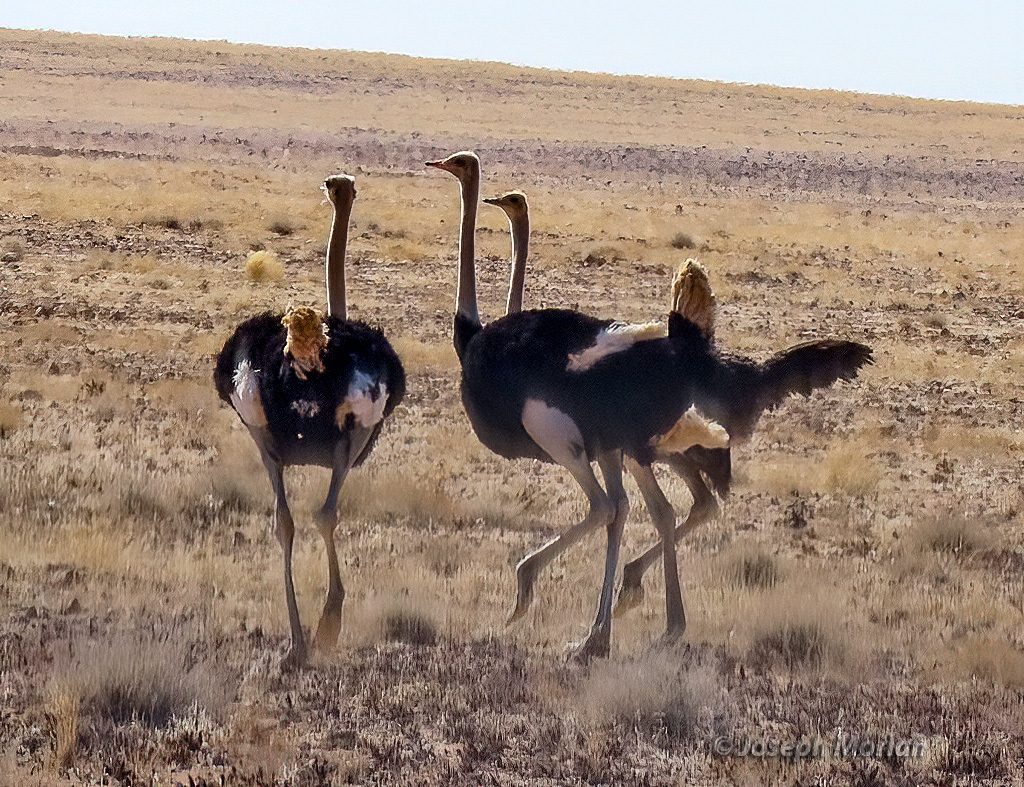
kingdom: Animalia
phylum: Chordata
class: Aves
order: Struthioniformes
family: Struthionidae
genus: Struthio
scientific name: Struthio camelus
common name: Common ostrich
